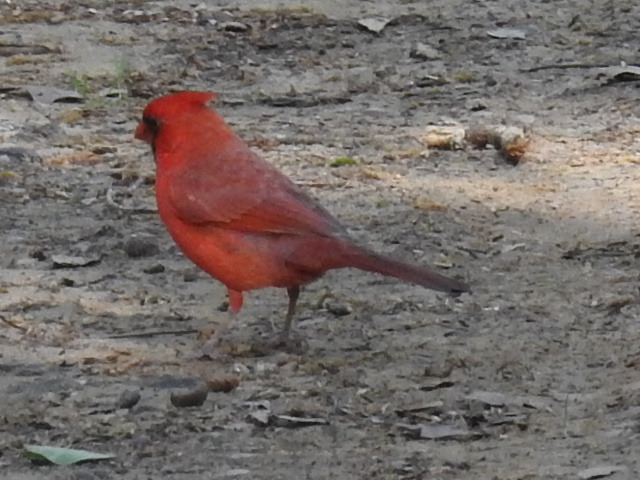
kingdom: Animalia
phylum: Chordata
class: Aves
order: Passeriformes
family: Cardinalidae
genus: Cardinalis
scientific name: Cardinalis cardinalis
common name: Northern cardinal
